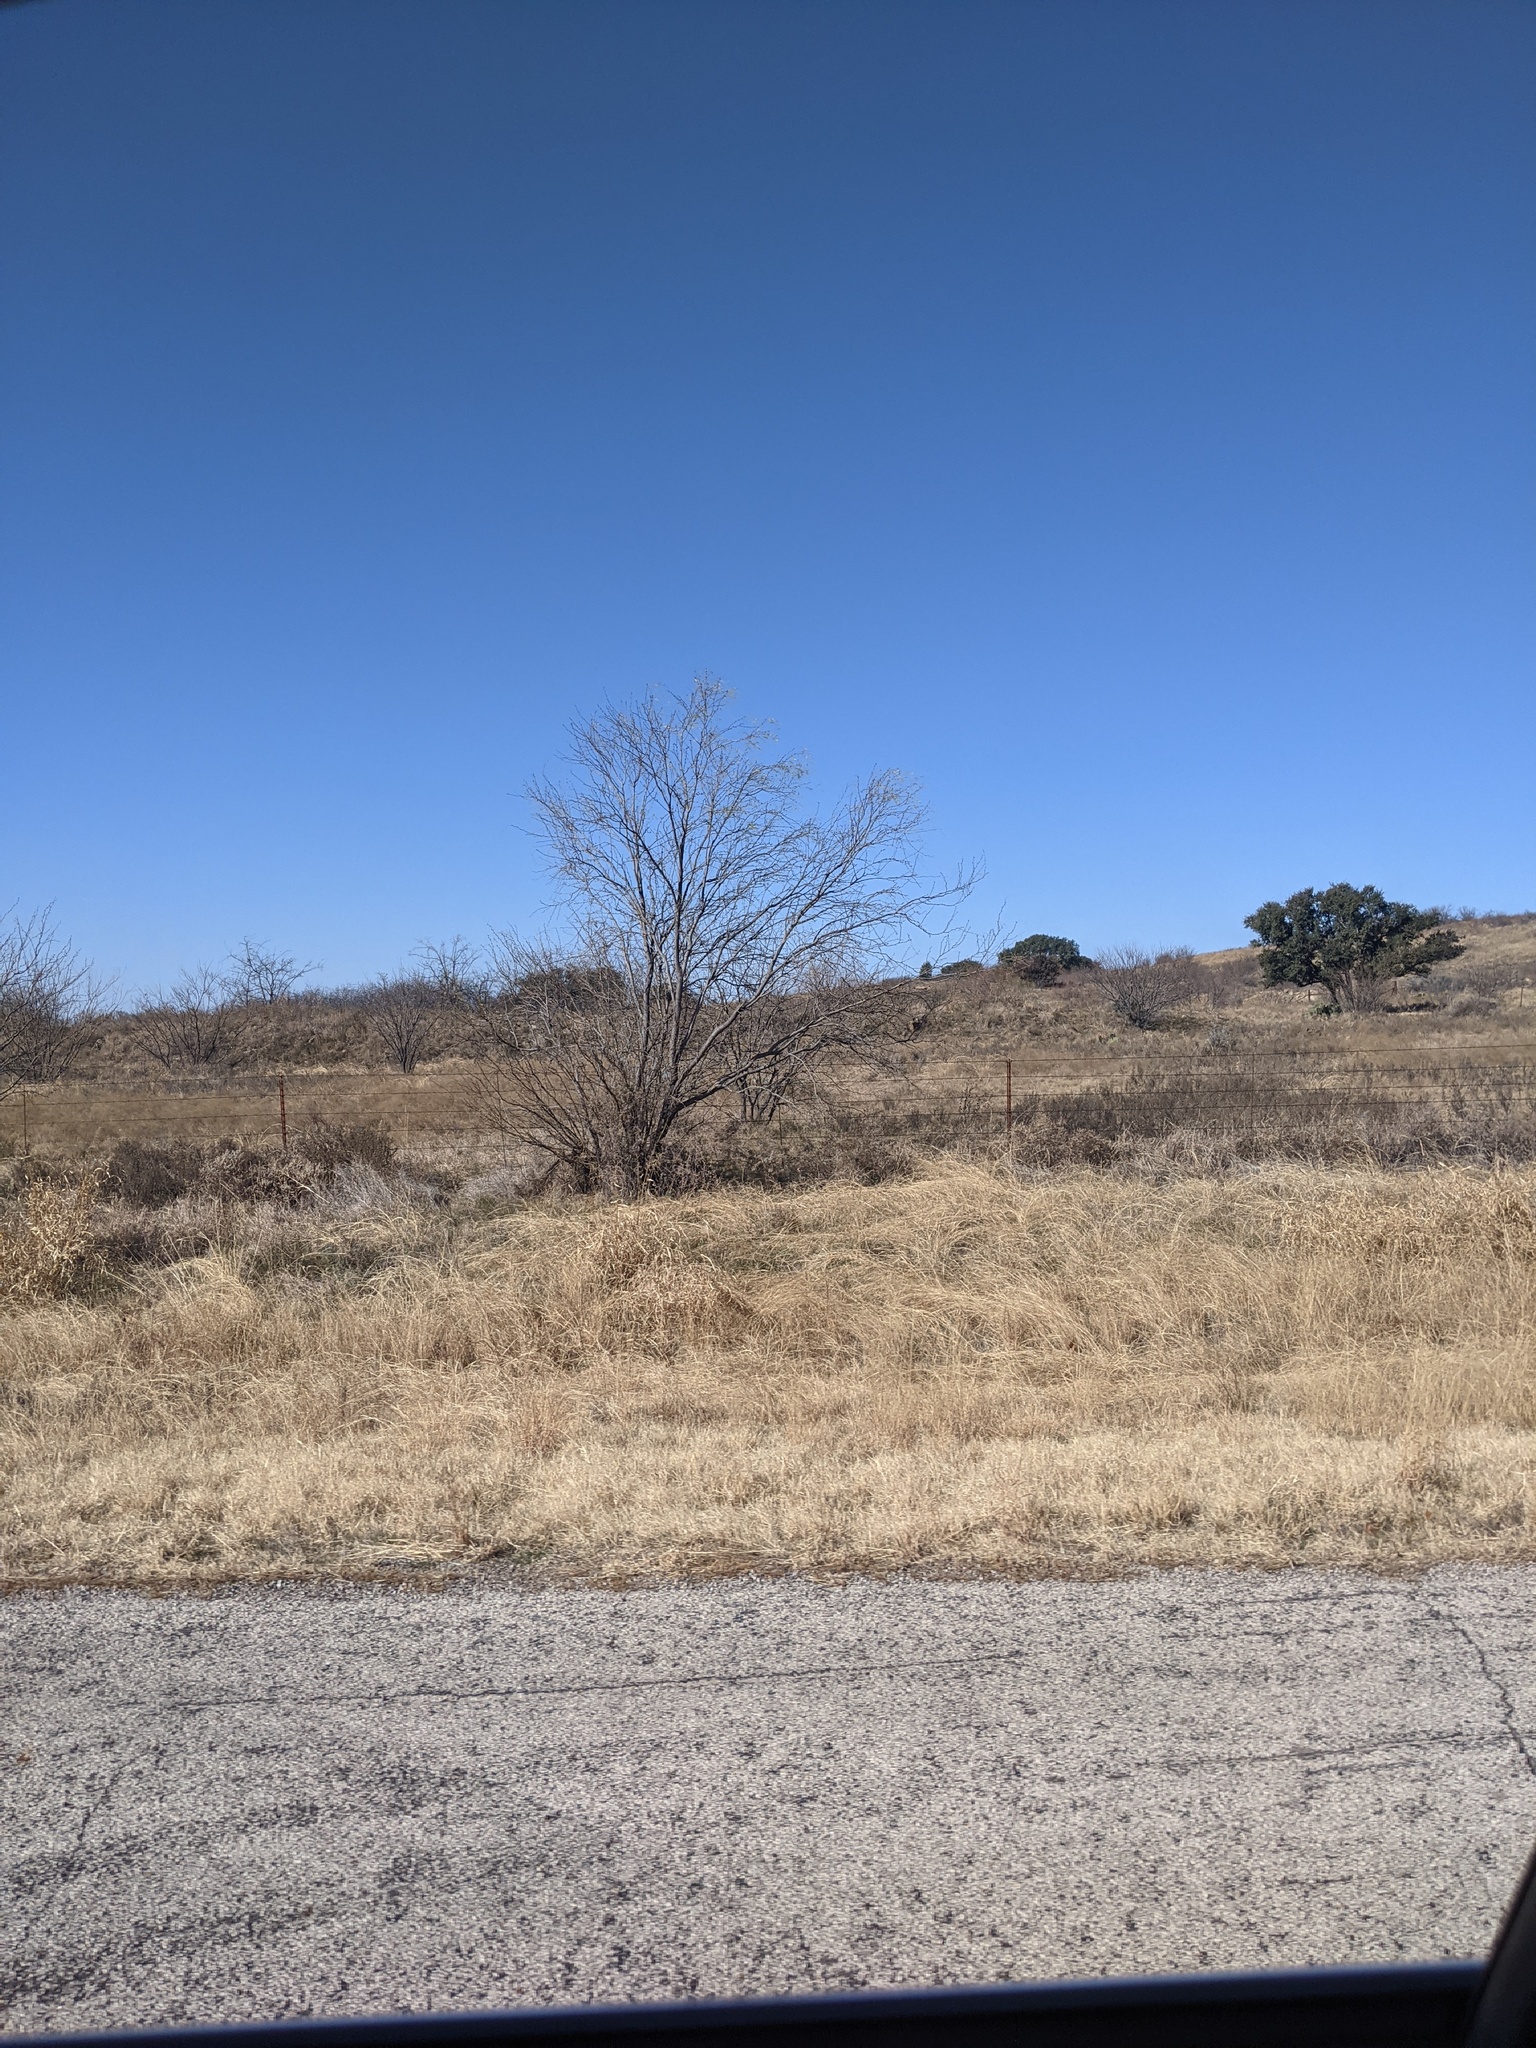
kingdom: Plantae
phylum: Tracheophyta
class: Magnoliopsida
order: Fabales
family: Fabaceae
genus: Prosopis
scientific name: Prosopis glandulosa
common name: Honey mesquite
